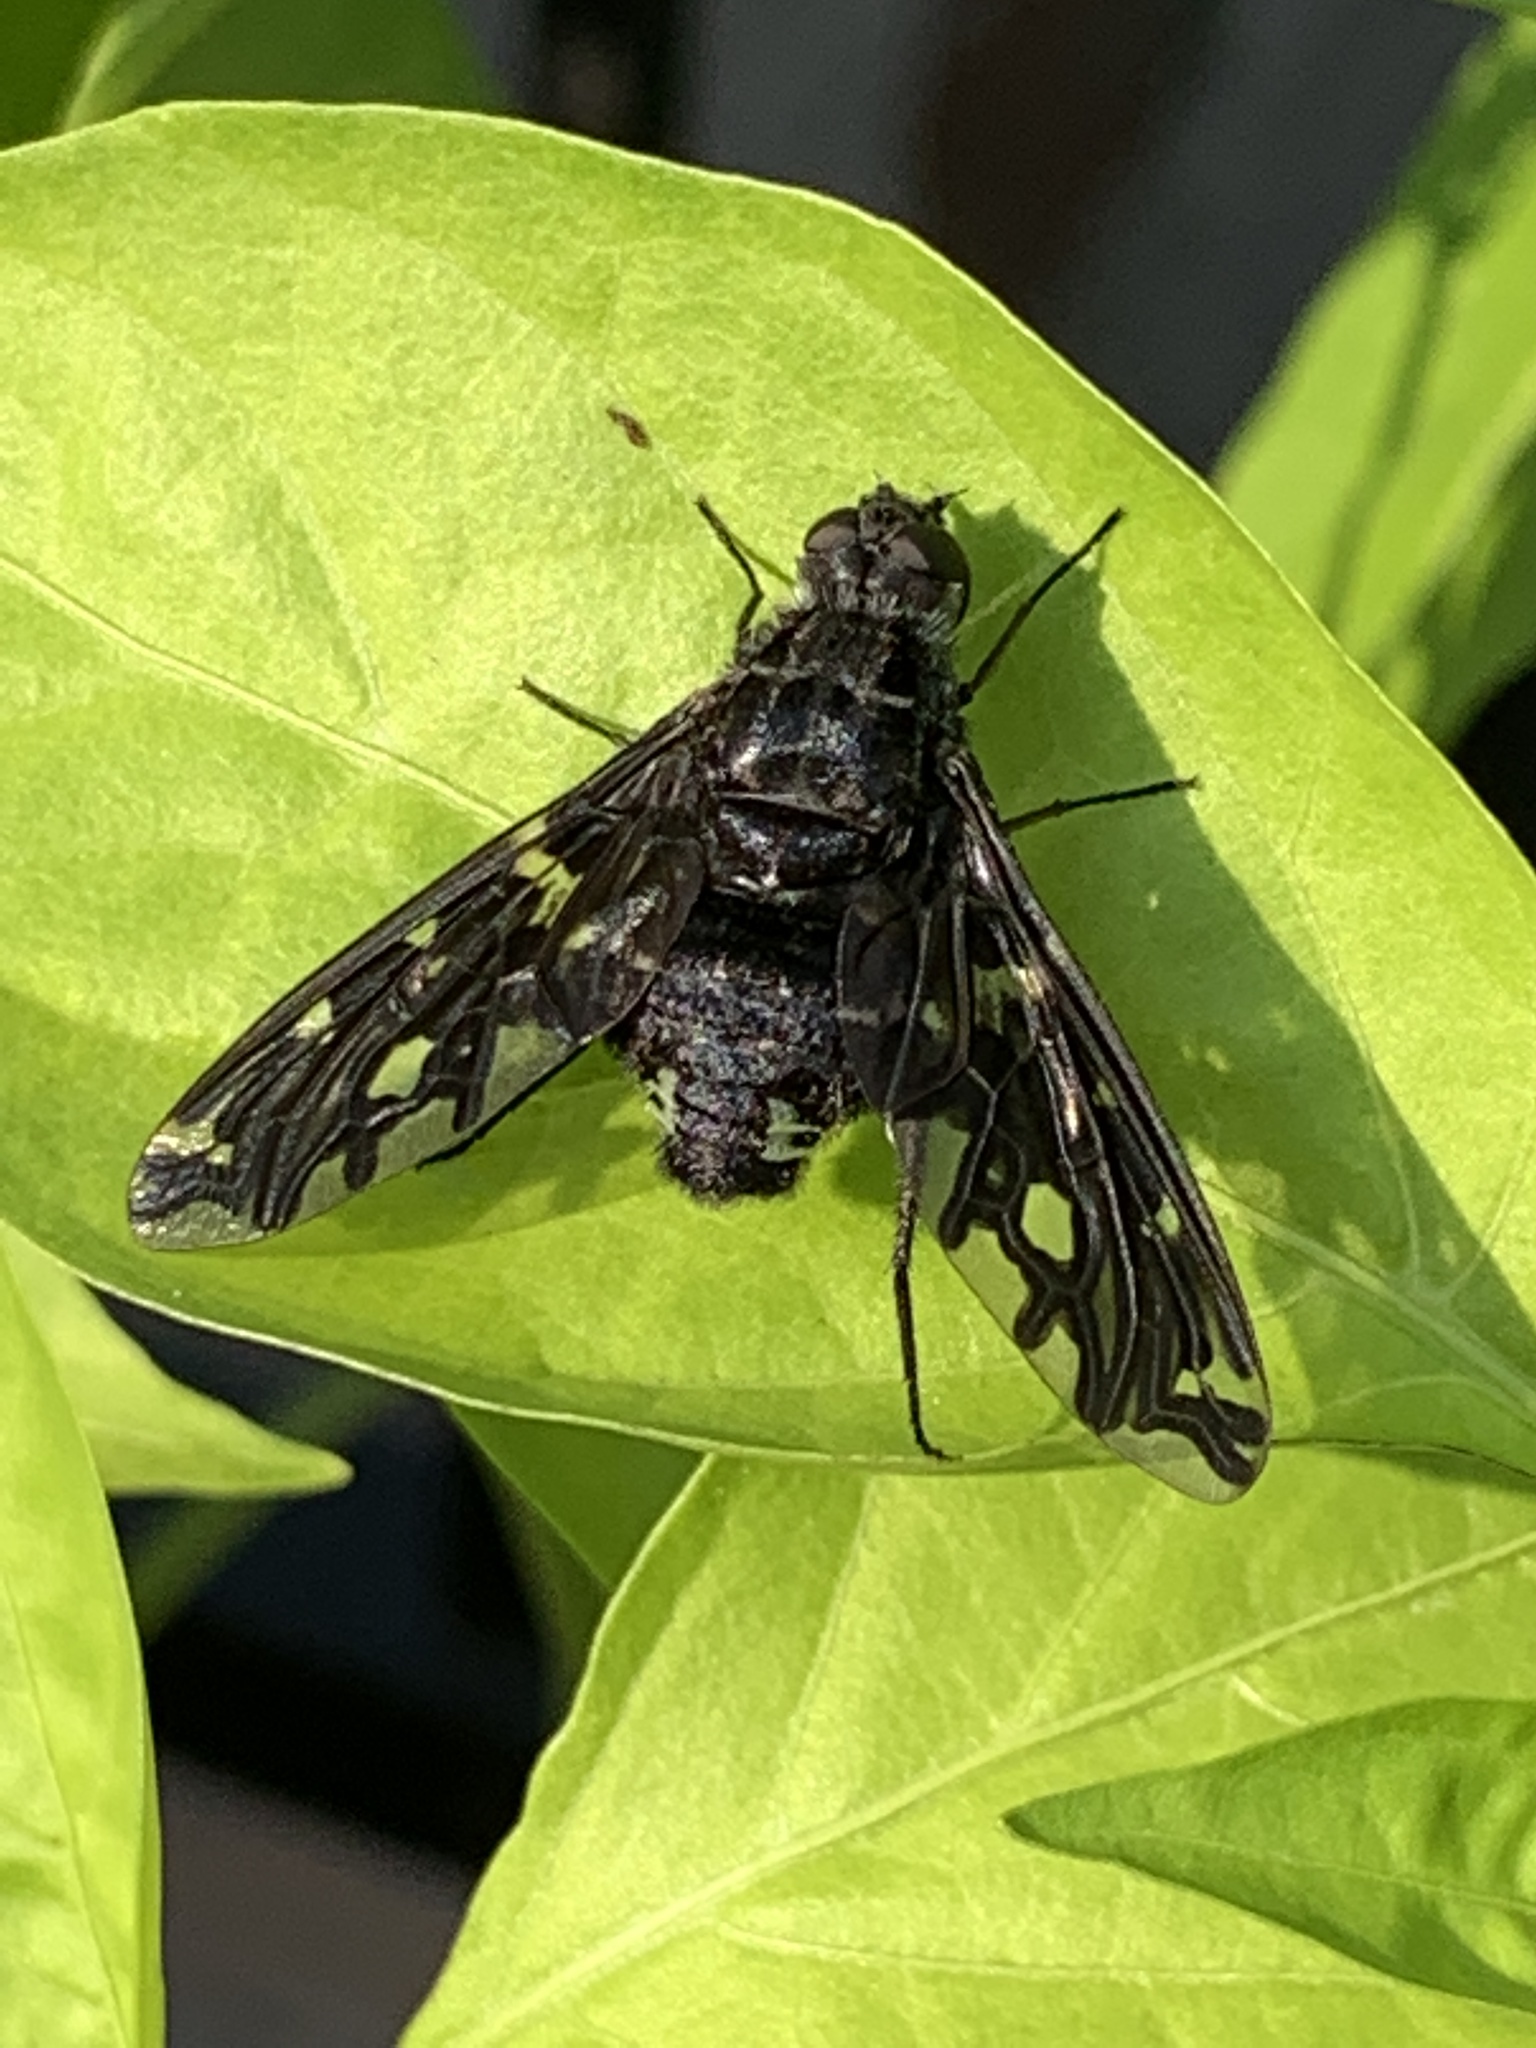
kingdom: Animalia
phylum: Arthropoda
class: Insecta
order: Diptera
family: Bombyliidae
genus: Xenox
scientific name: Xenox tigrinus
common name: Tiger bee fly
